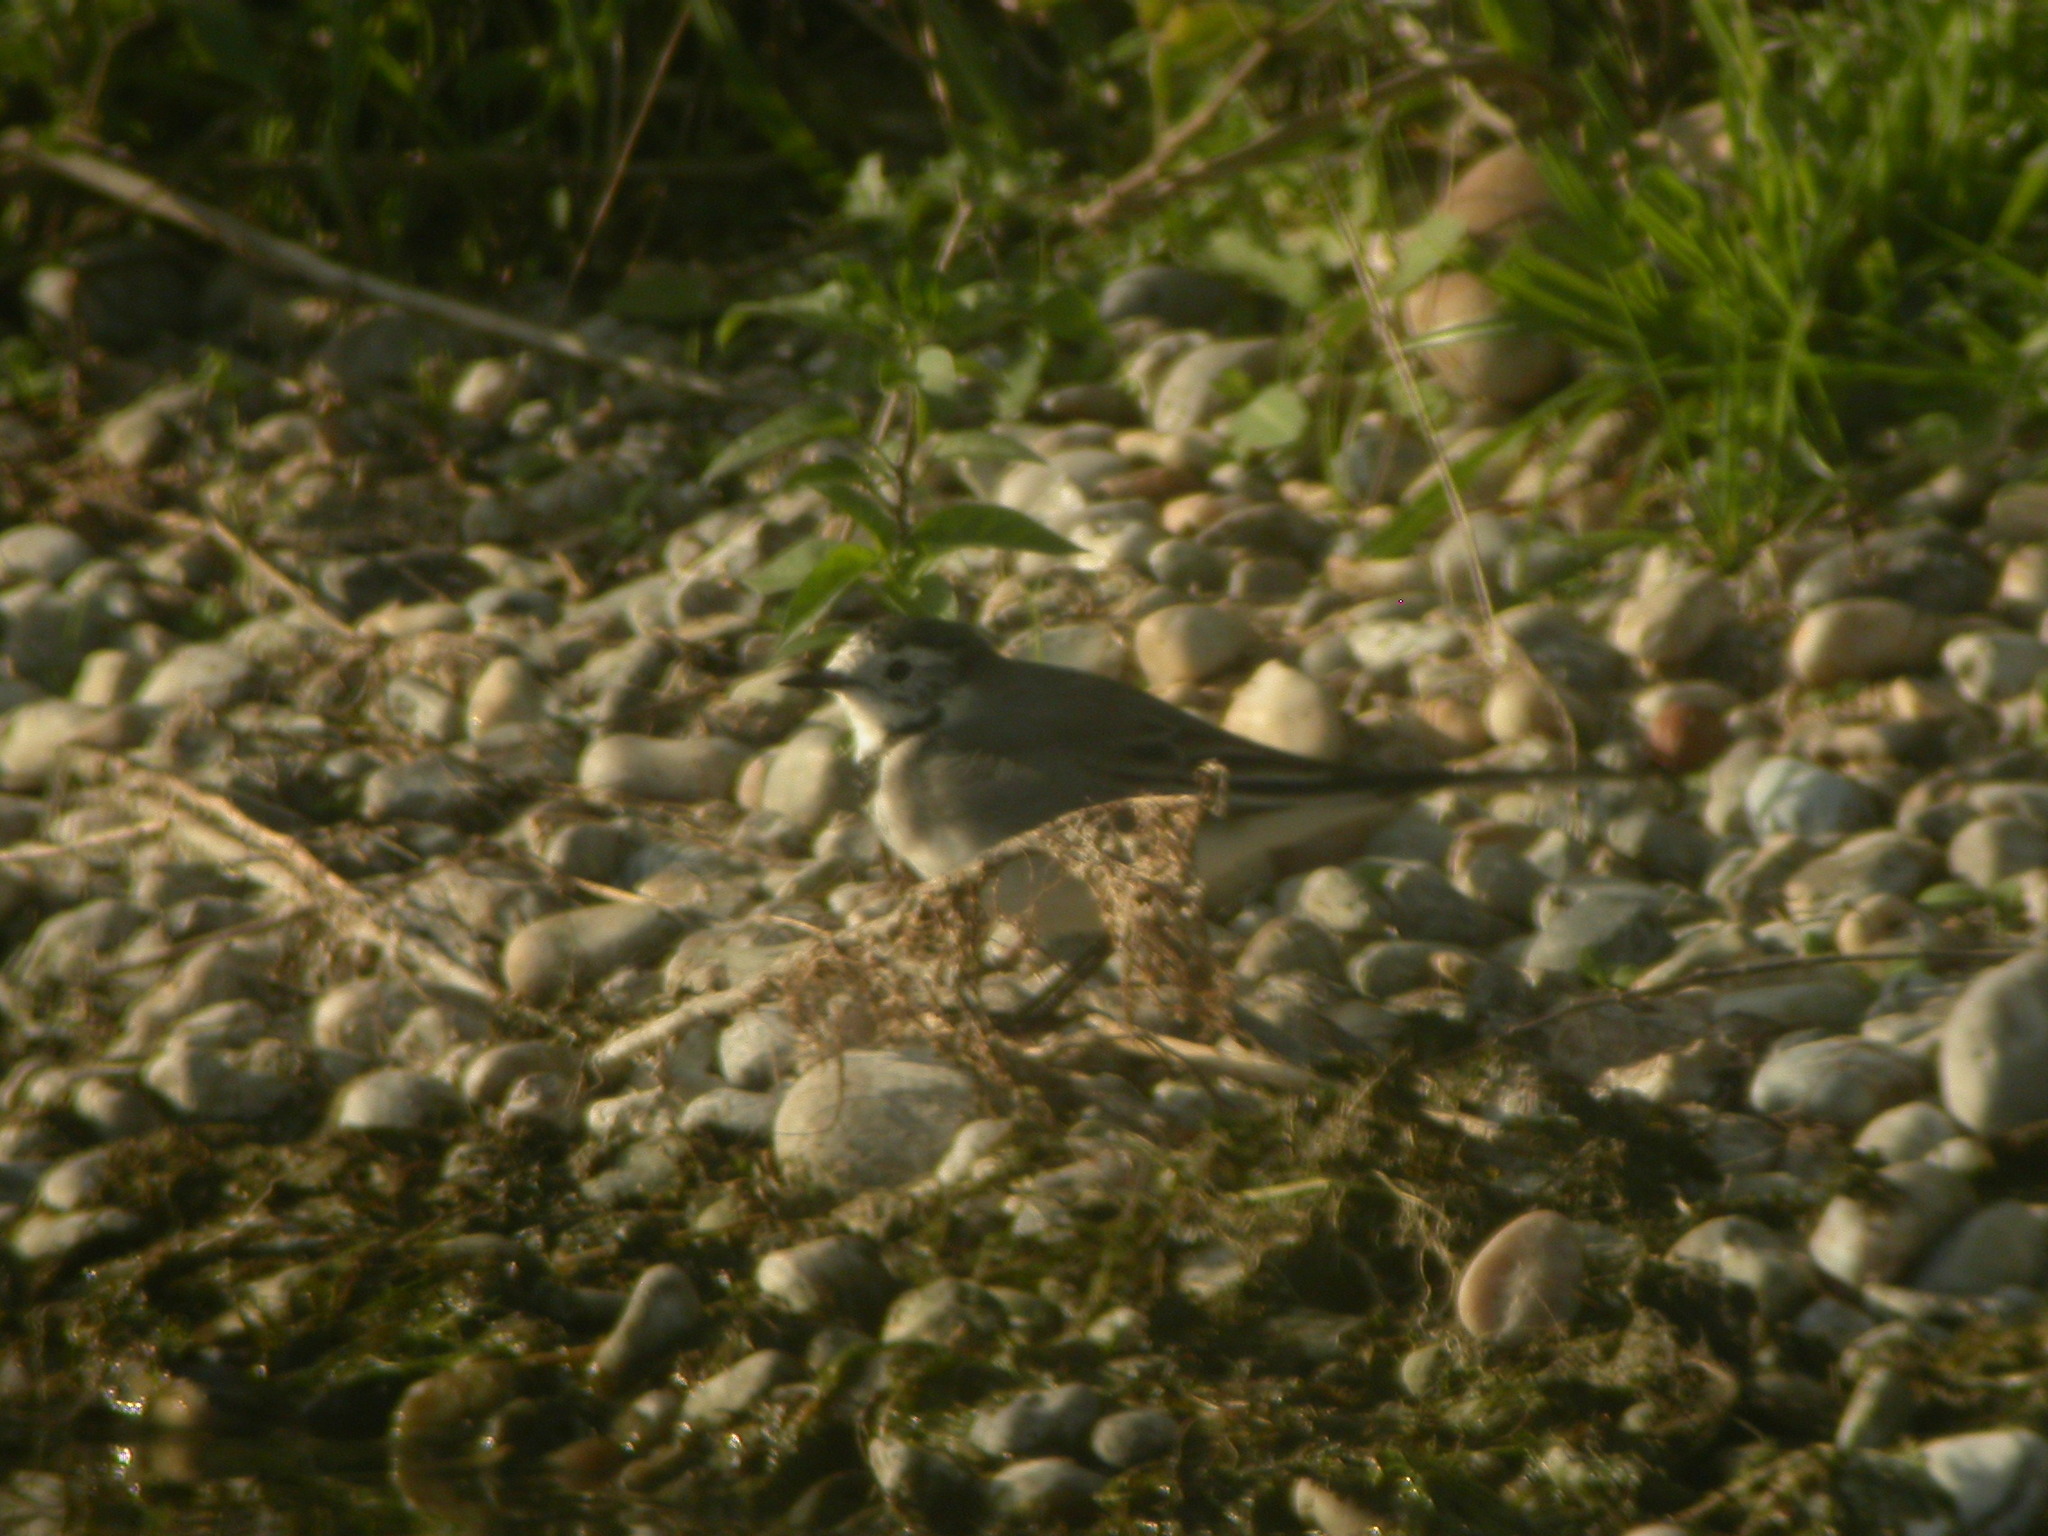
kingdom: Animalia
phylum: Chordata
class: Aves
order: Passeriformes
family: Motacillidae
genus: Motacilla
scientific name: Motacilla alba
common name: White wagtail
